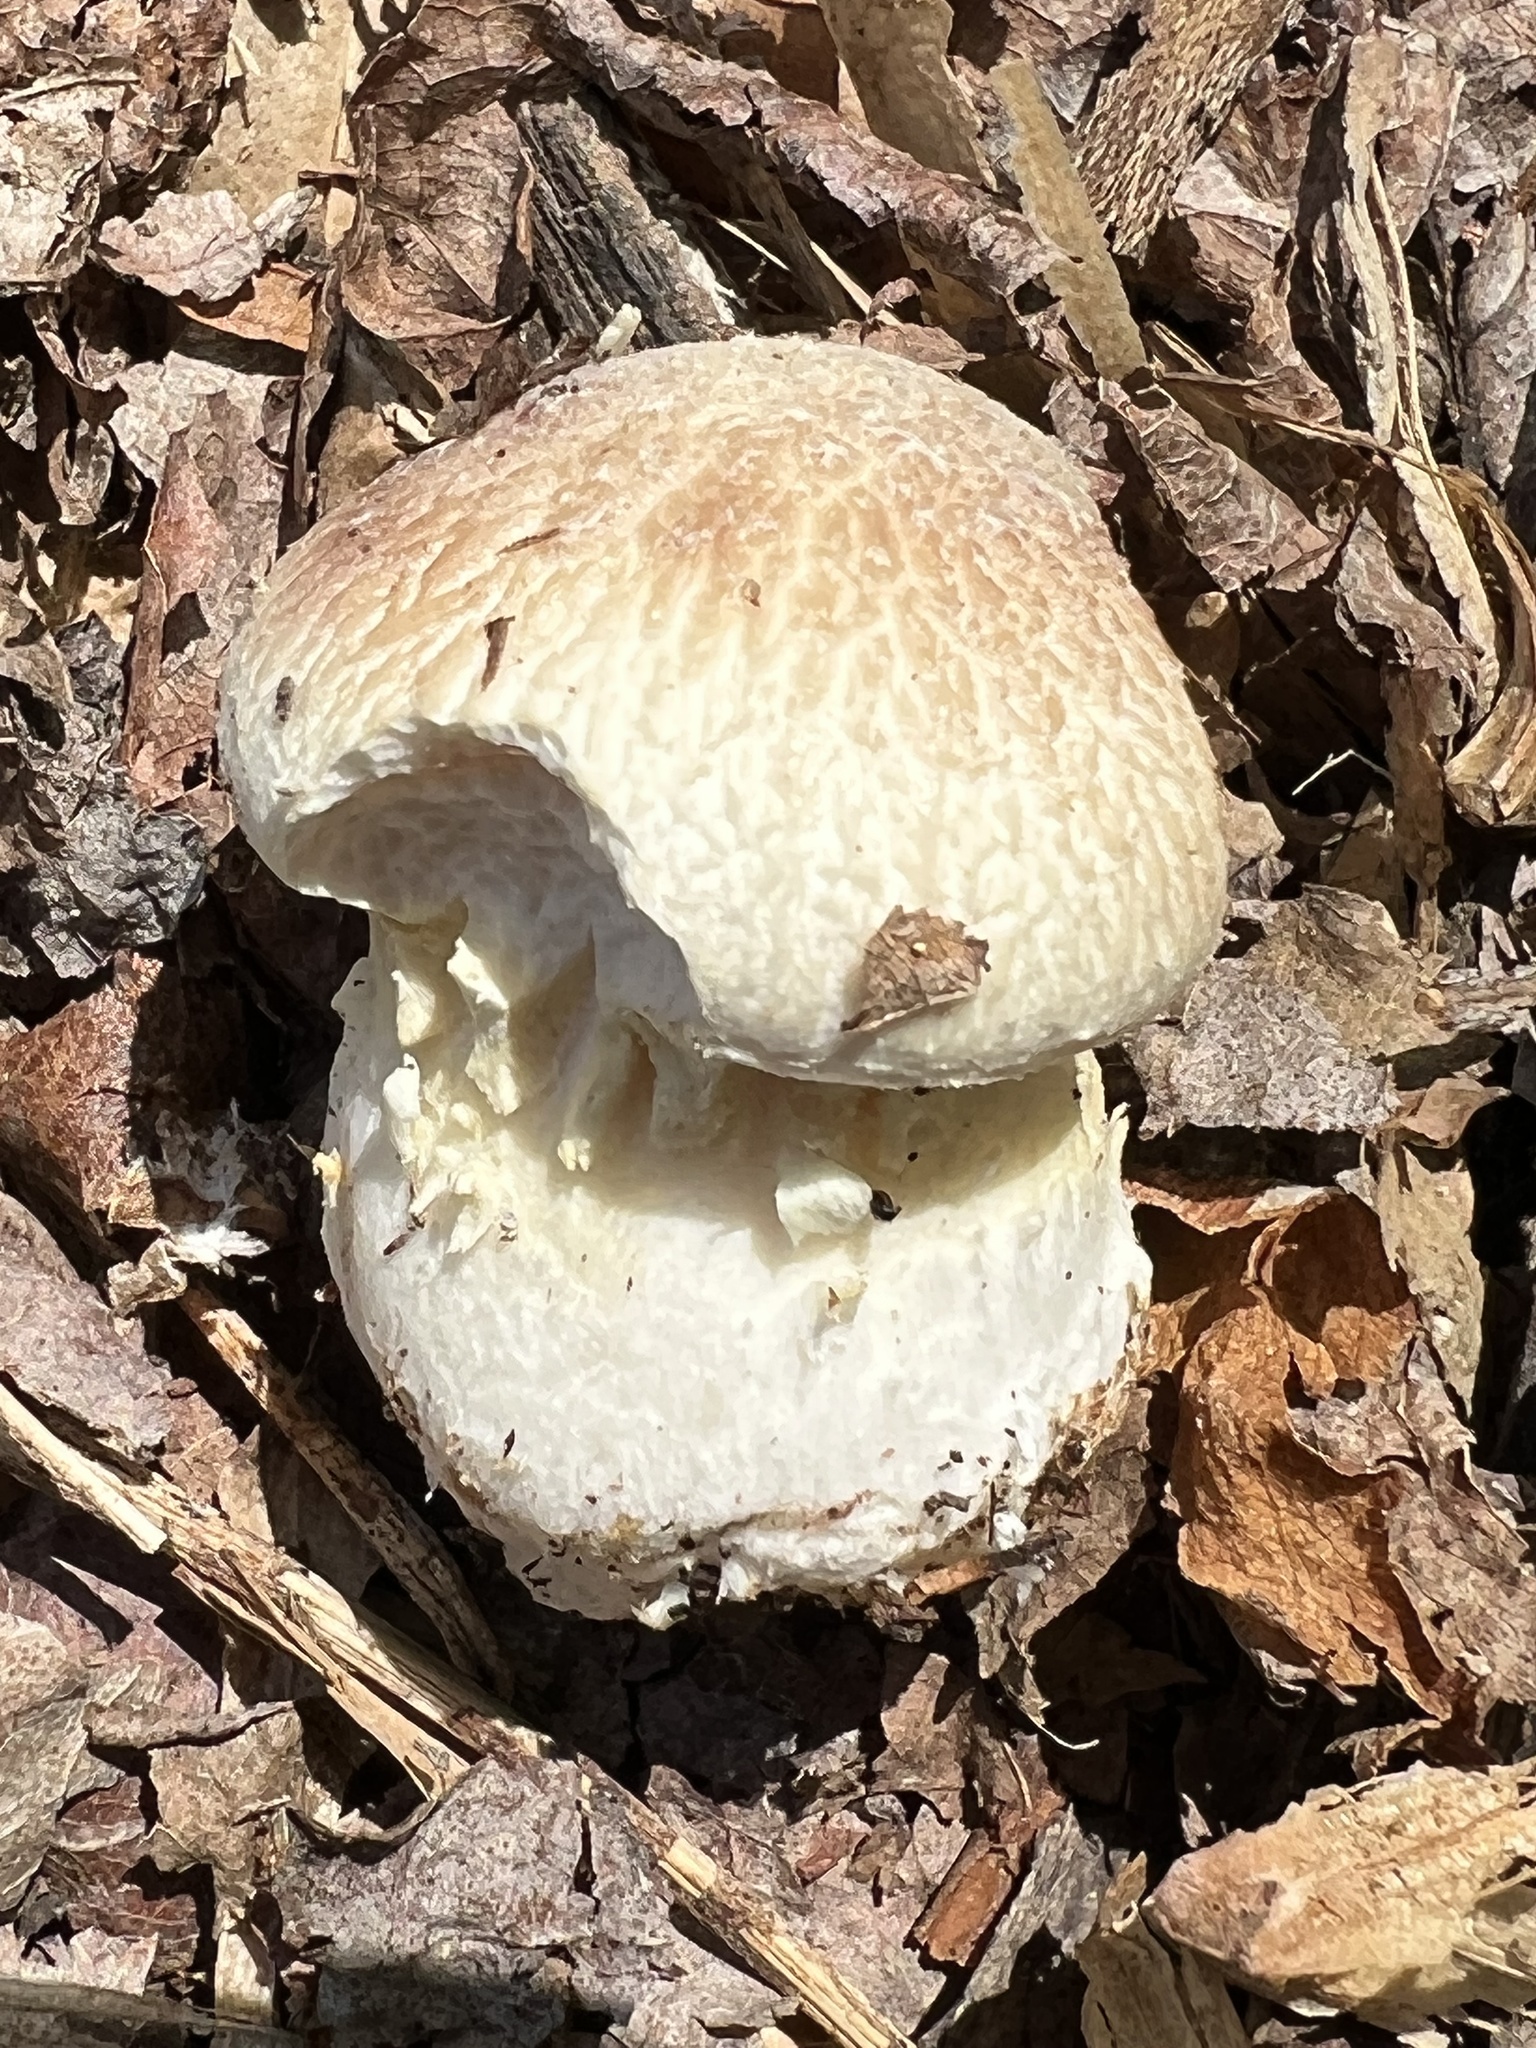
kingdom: Fungi
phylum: Basidiomycota
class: Agaricomycetes
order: Agaricales
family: Strophariaceae
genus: Stropharia
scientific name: Stropharia rugosoannulata
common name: Wine roundhead
